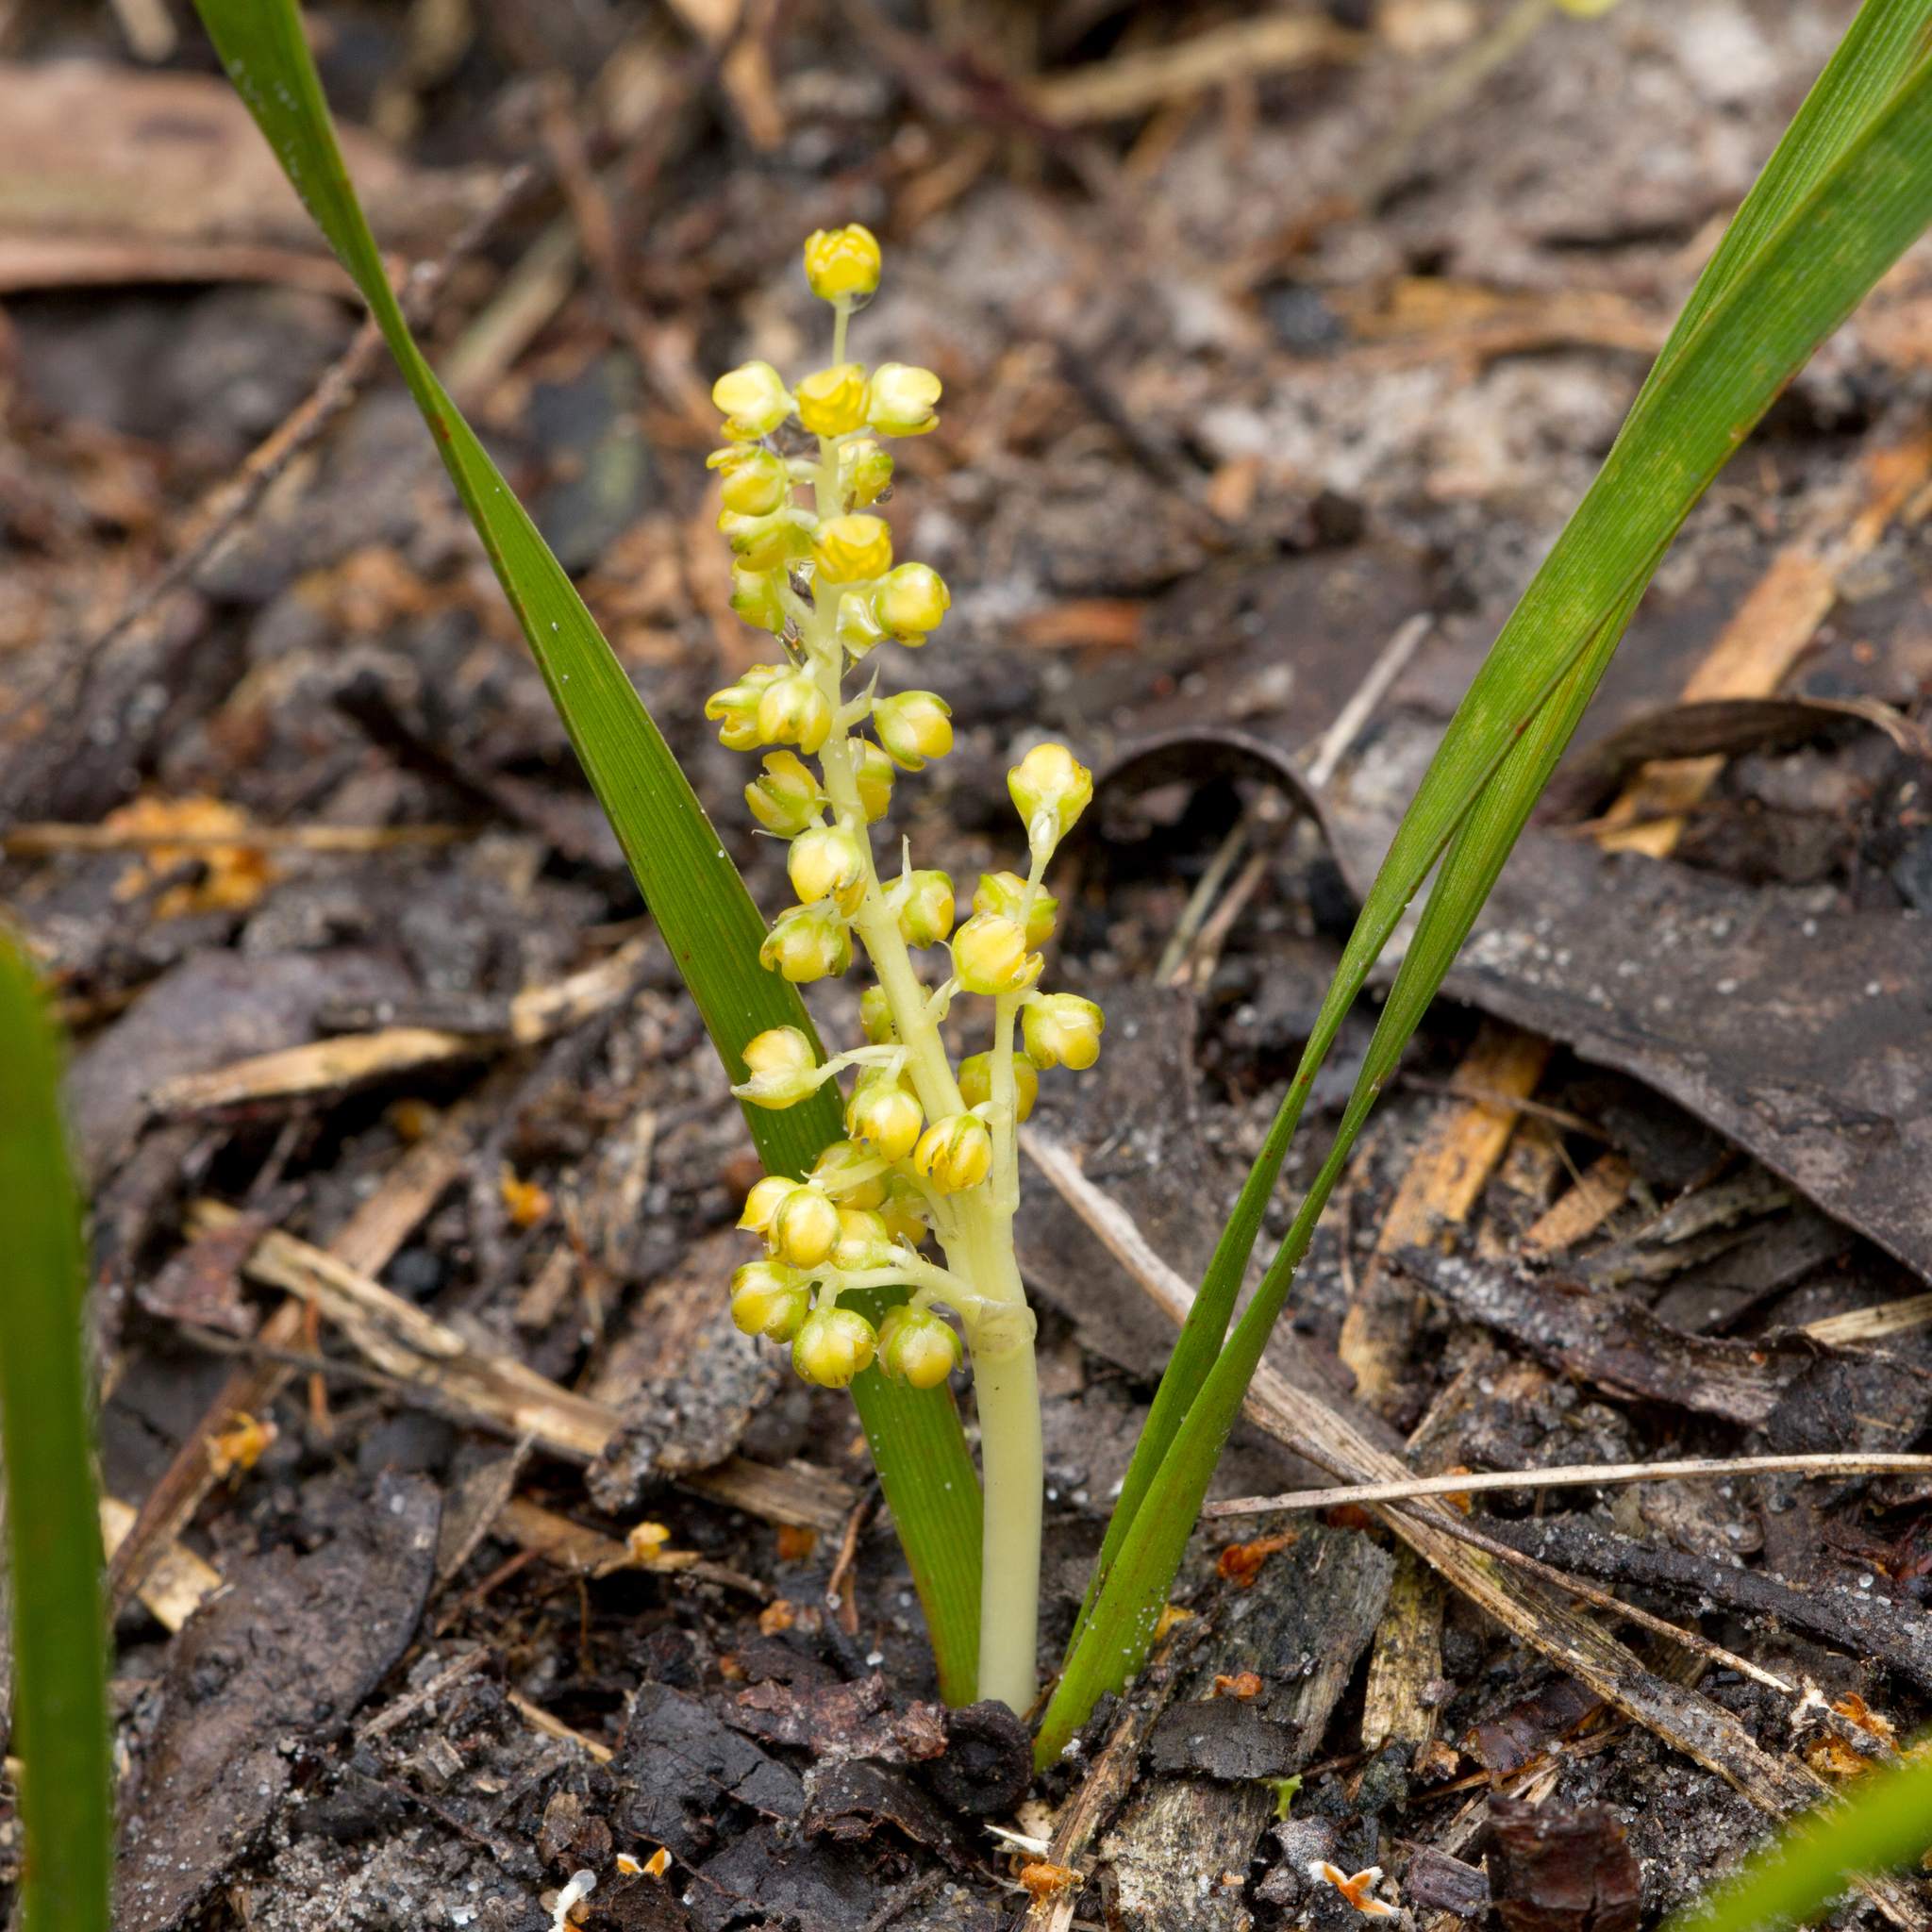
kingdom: Plantae
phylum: Tracheophyta
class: Liliopsida
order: Asparagales
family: Asparagaceae
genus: Lomandra
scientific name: Lomandra filiformis
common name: Wattle mat-rush
